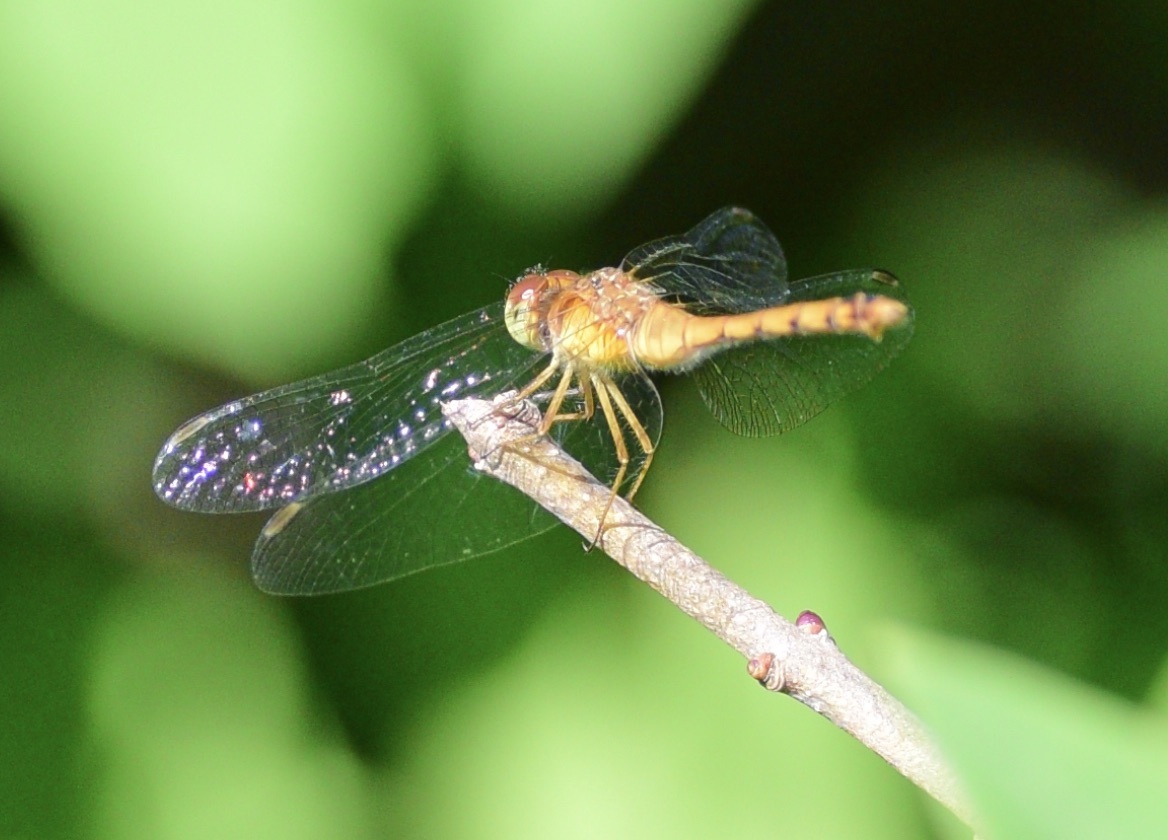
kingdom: Animalia
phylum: Arthropoda
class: Insecta
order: Odonata
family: Libellulidae
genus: Sympetrum
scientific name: Sympetrum vicinum
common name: Autumn meadowhawk
